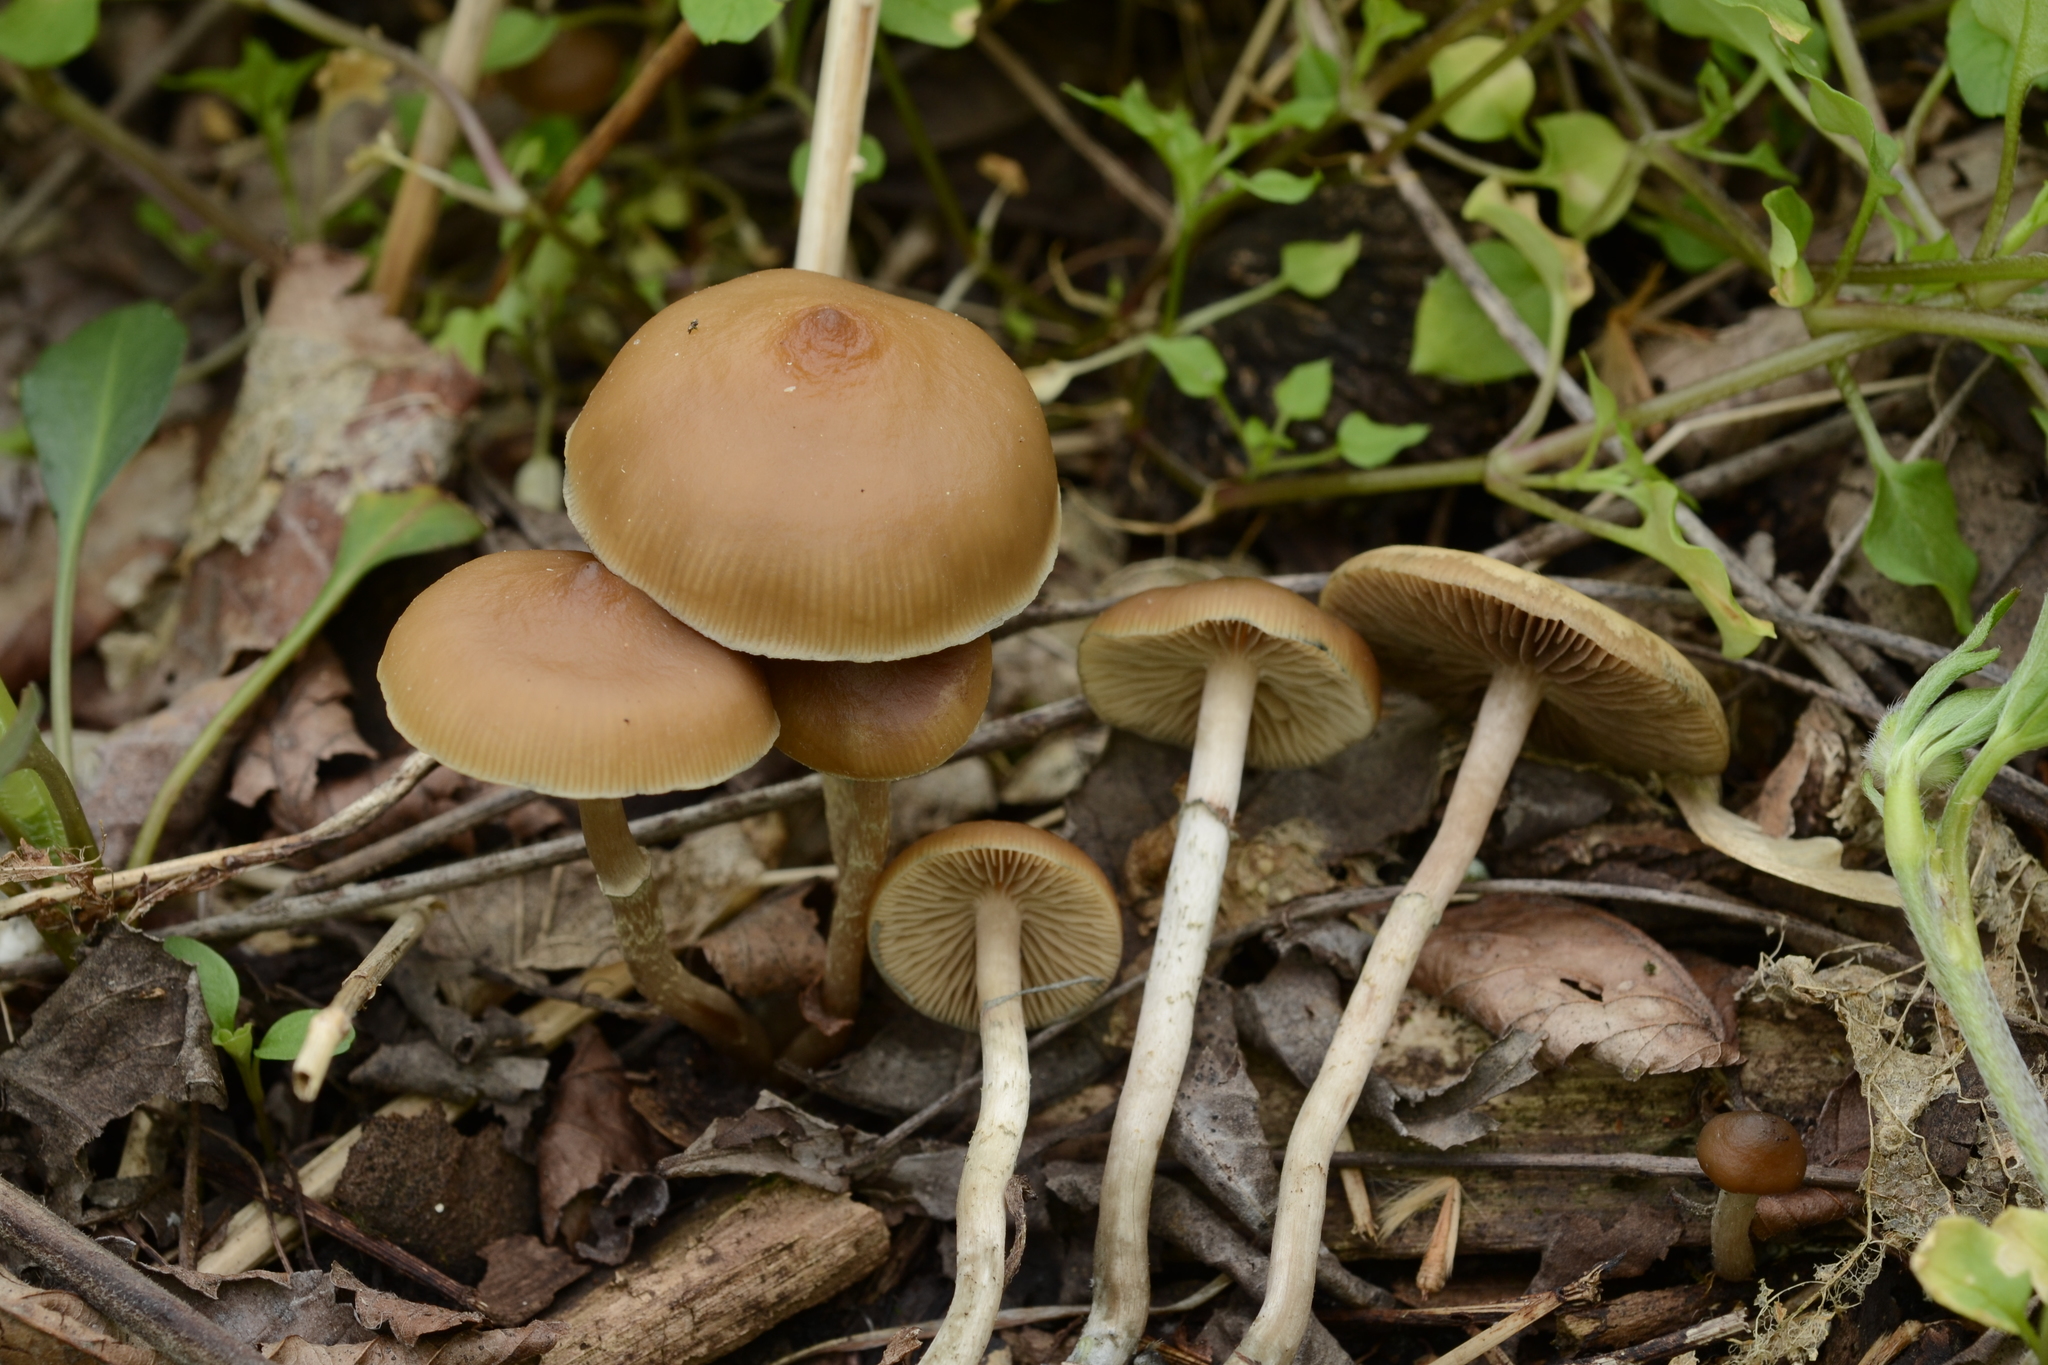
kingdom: Fungi
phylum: Basidiomycota
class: Agaricomycetes
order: Agaricales
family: Hymenogastraceae
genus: Psilocybe
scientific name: Psilocybe ovoideocystidiata
